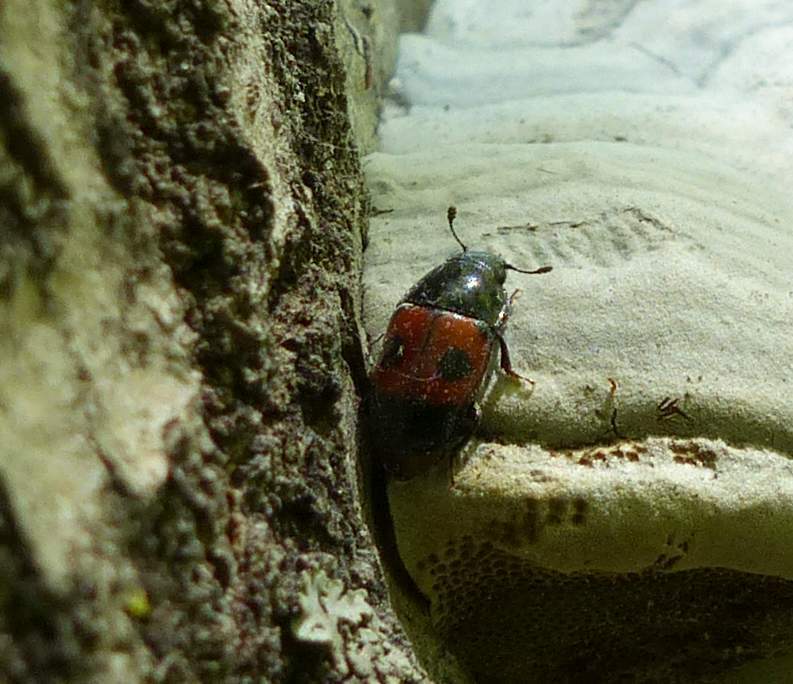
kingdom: Animalia
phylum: Arthropoda
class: Insecta
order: Coleoptera
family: Nitidulidae
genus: Glischrochilus
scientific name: Glischrochilus sanguinolentus
